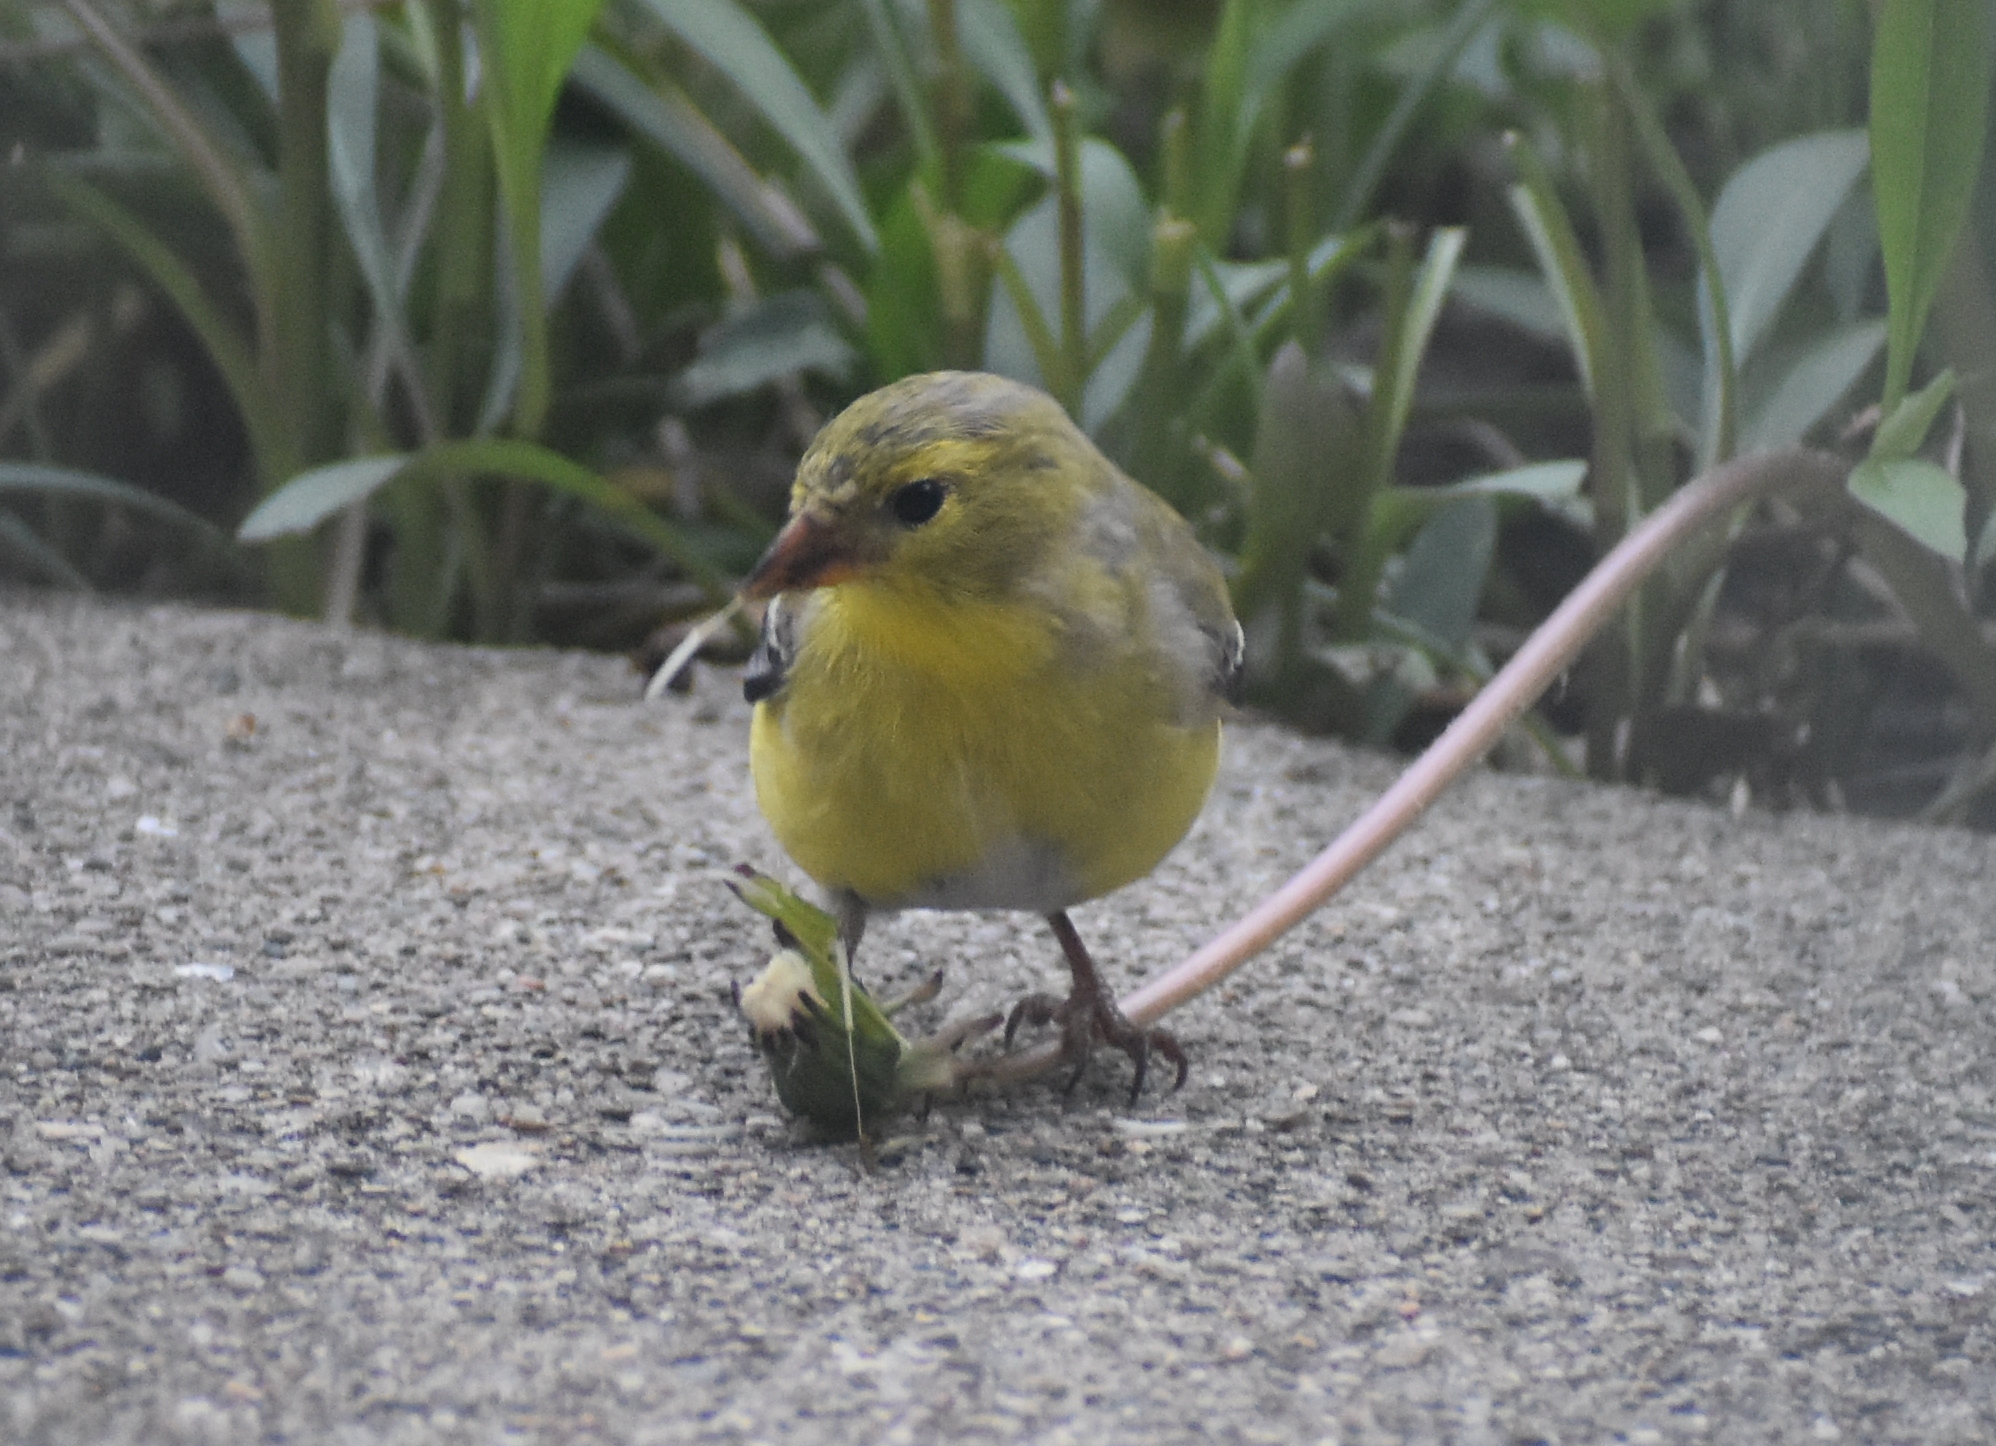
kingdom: Animalia
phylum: Chordata
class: Aves
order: Passeriformes
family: Fringillidae
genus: Spinus
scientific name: Spinus tristis
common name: American goldfinch
